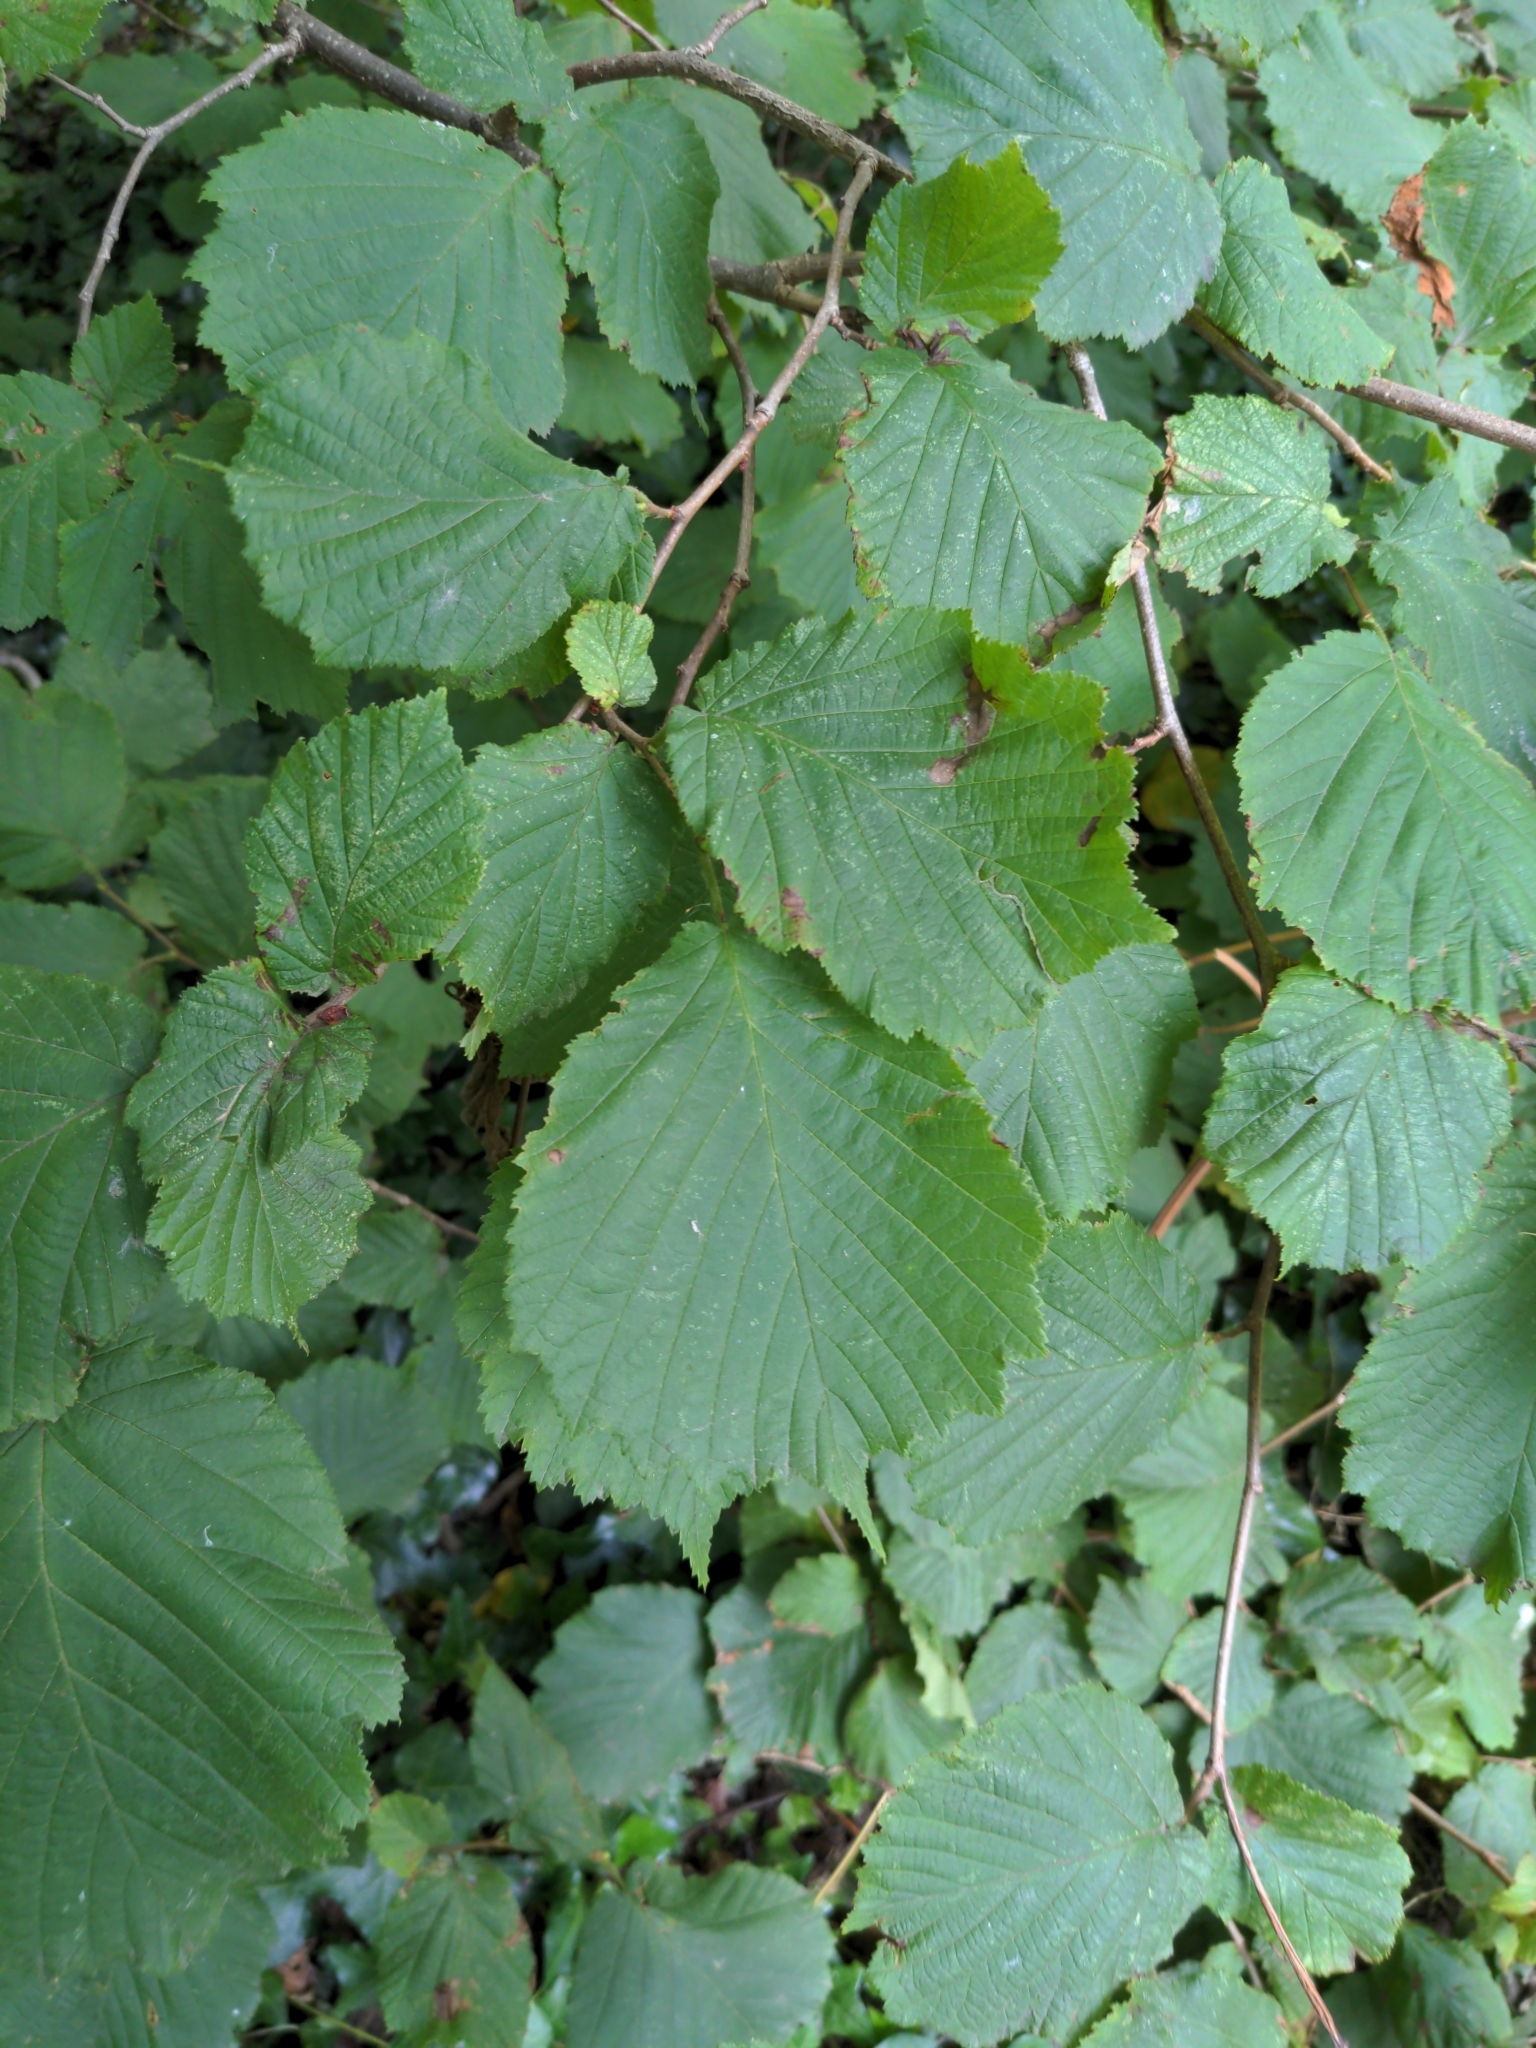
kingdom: Plantae
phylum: Tracheophyta
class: Magnoliopsida
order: Fagales
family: Betulaceae
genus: Corylus
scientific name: Corylus avellana
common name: European hazel
